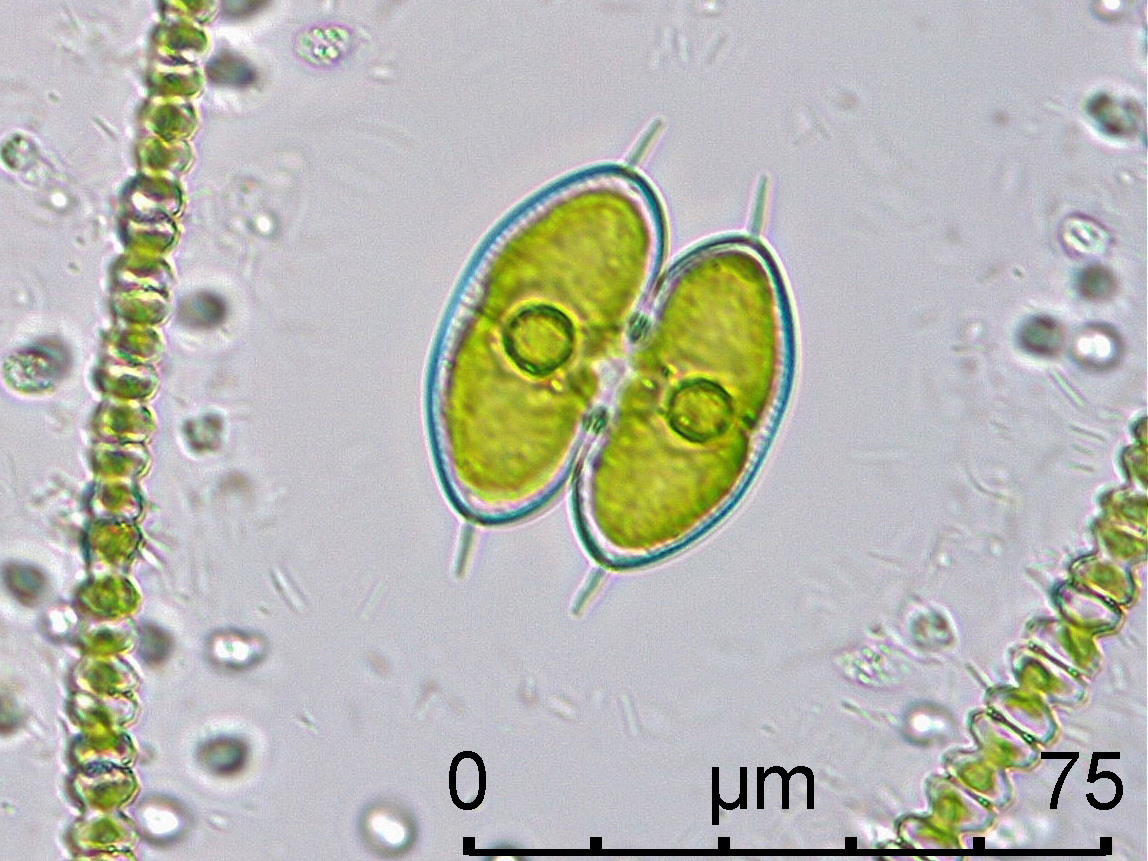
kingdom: Plantae
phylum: Charophyta
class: Zygnematophyceae
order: Zygnematales
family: Desmidiaceae
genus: Staurodesmus
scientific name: Staurodesmus convergens
